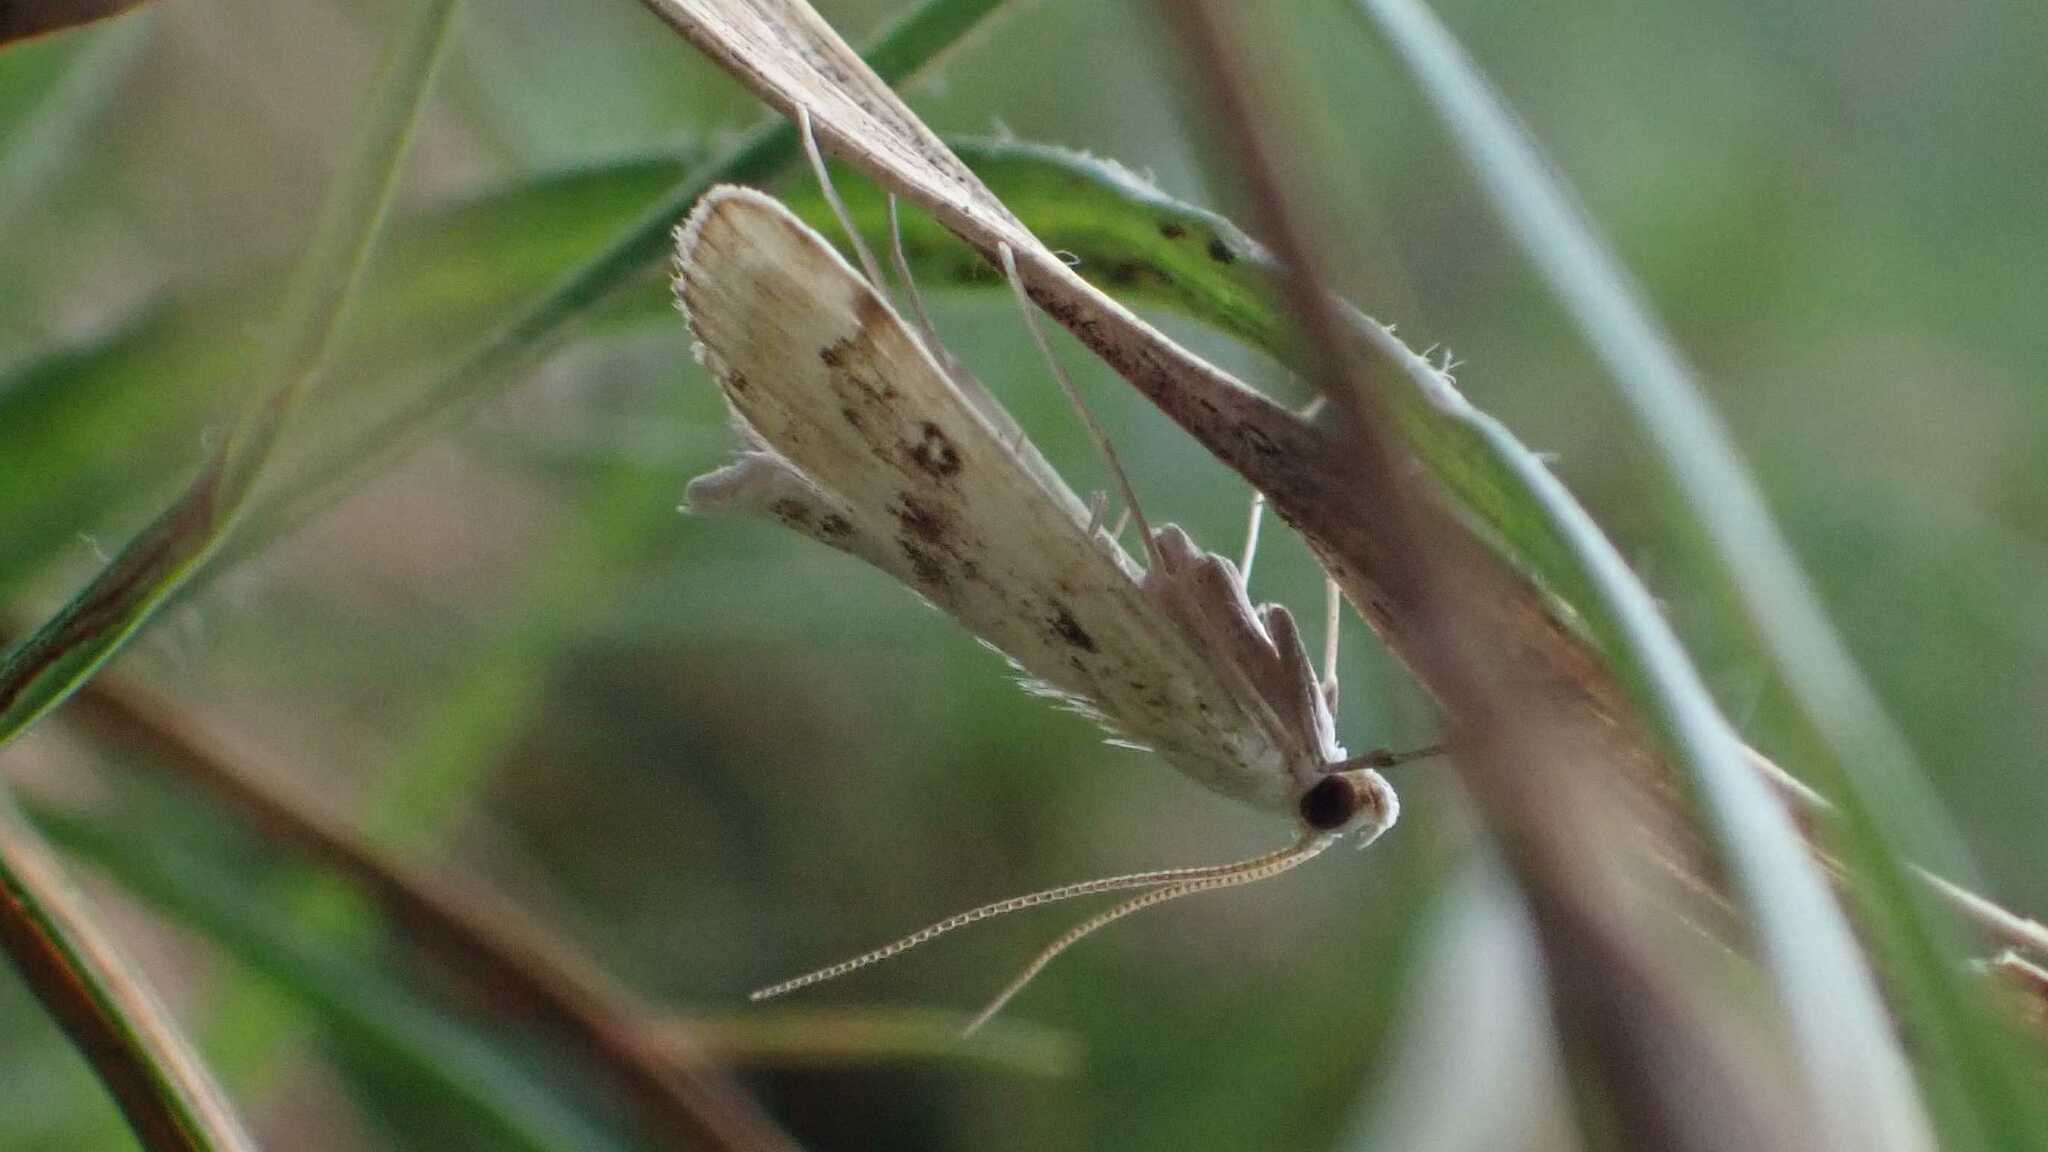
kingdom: Animalia
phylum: Arthropoda
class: Insecta
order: Lepidoptera
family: Crambidae
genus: Parapoynx
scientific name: Parapoynx stratiotata
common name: Ringed china-mark
